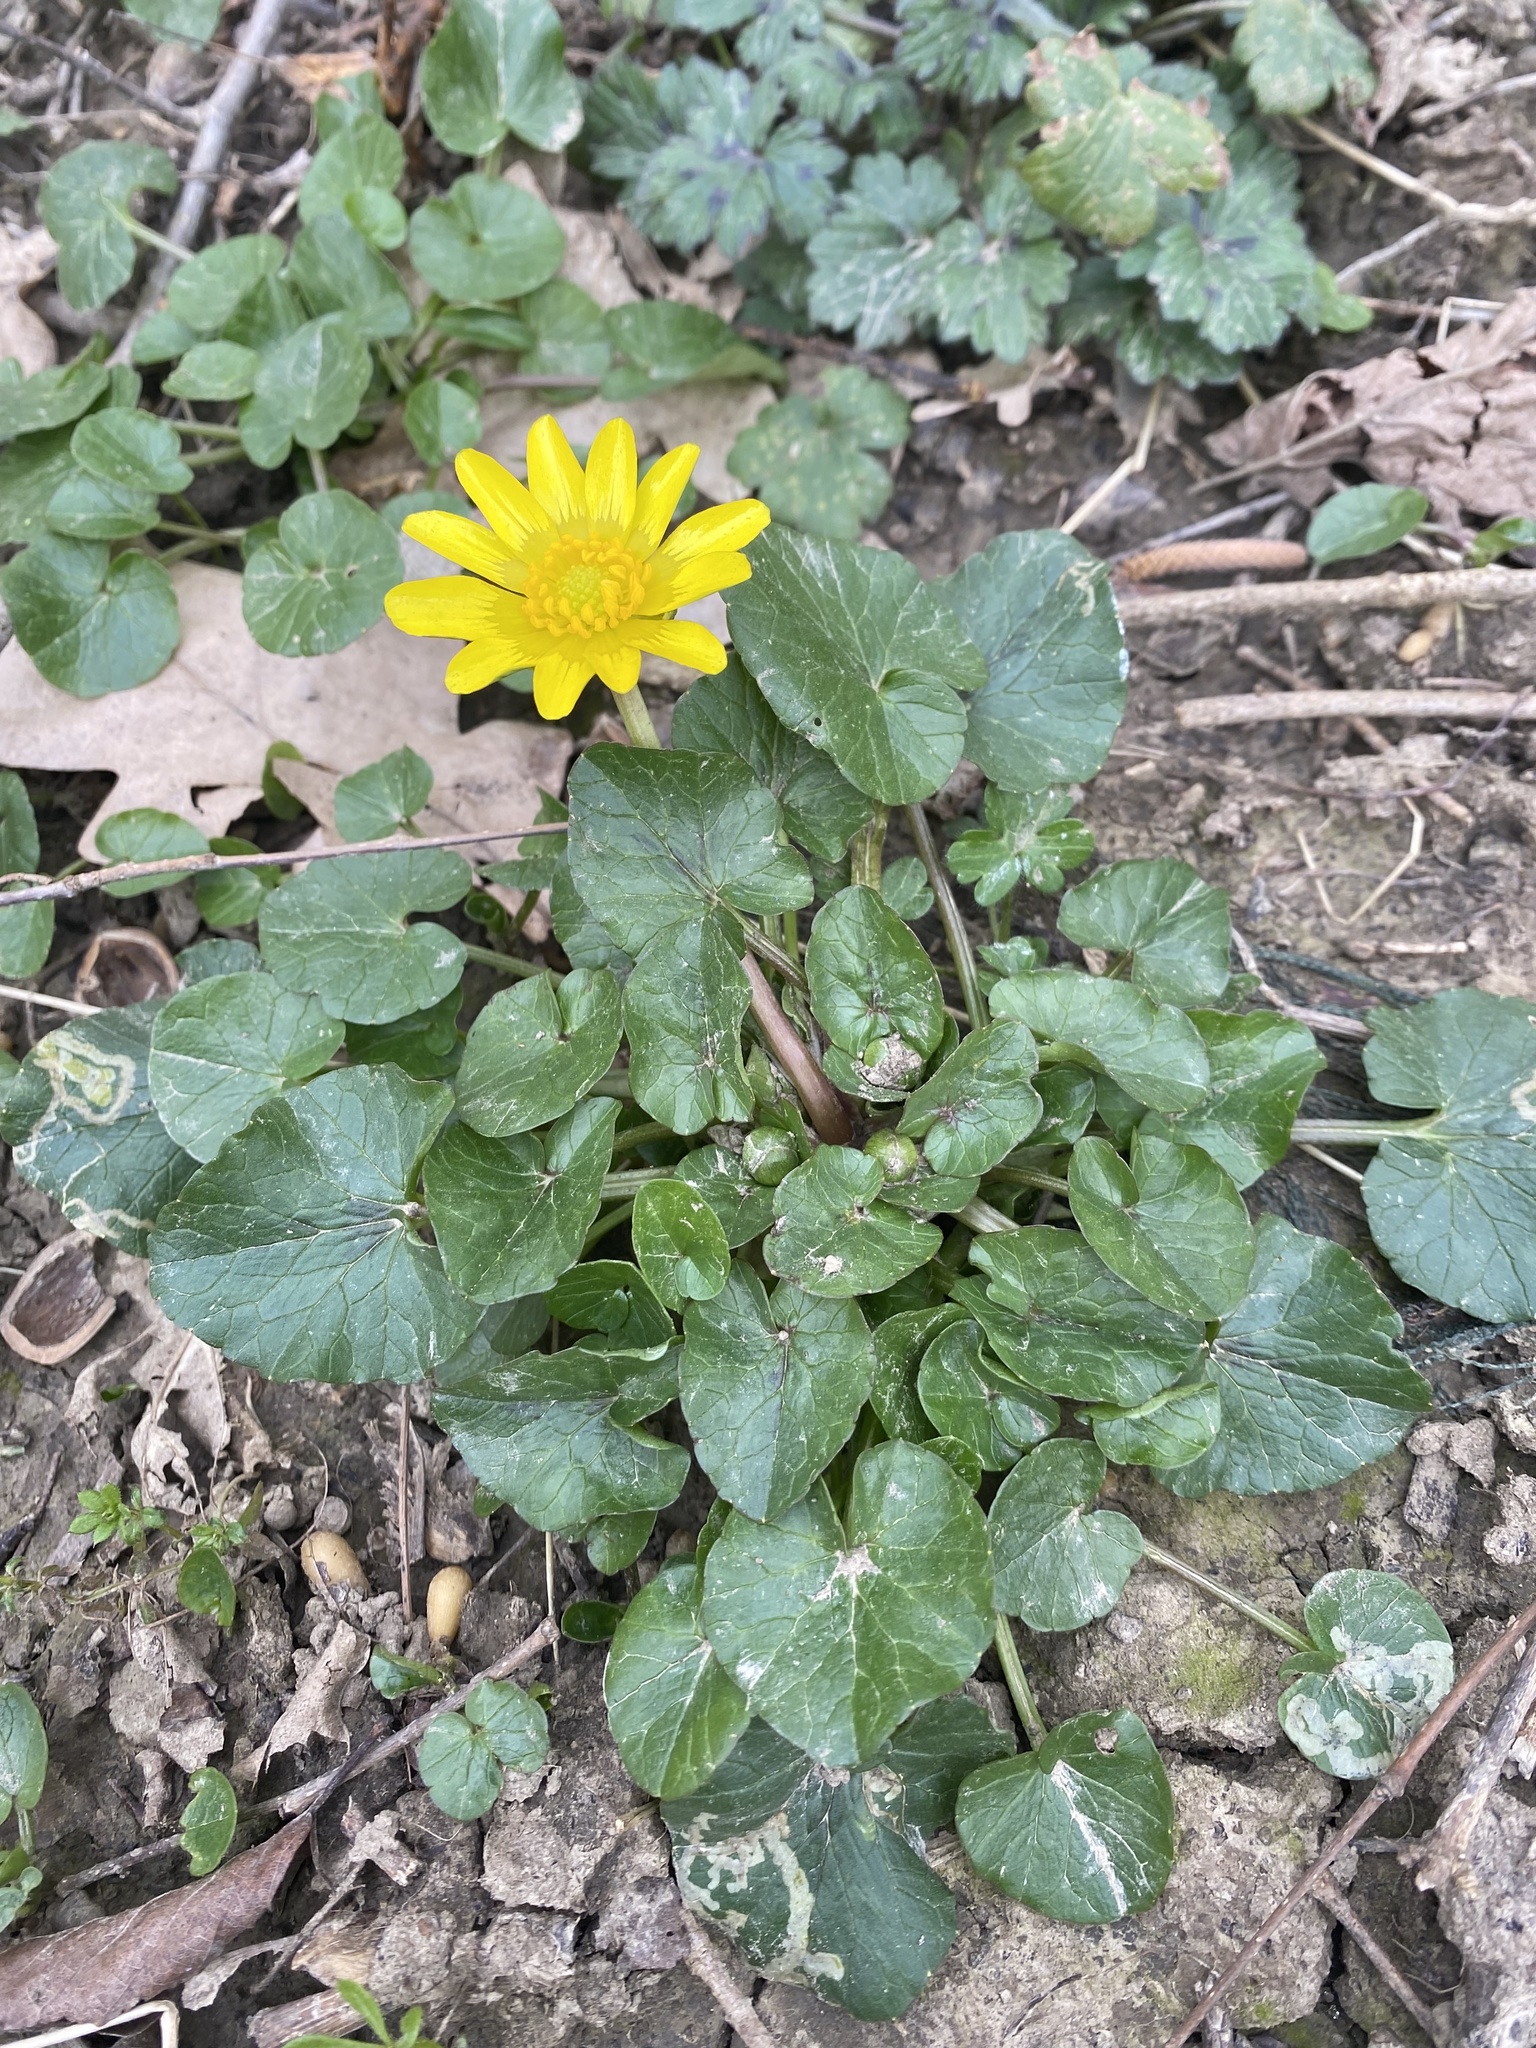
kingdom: Plantae
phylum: Tracheophyta
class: Magnoliopsida
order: Ranunculales
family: Ranunculaceae
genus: Ficaria
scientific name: Ficaria verna
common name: Lesser celandine
